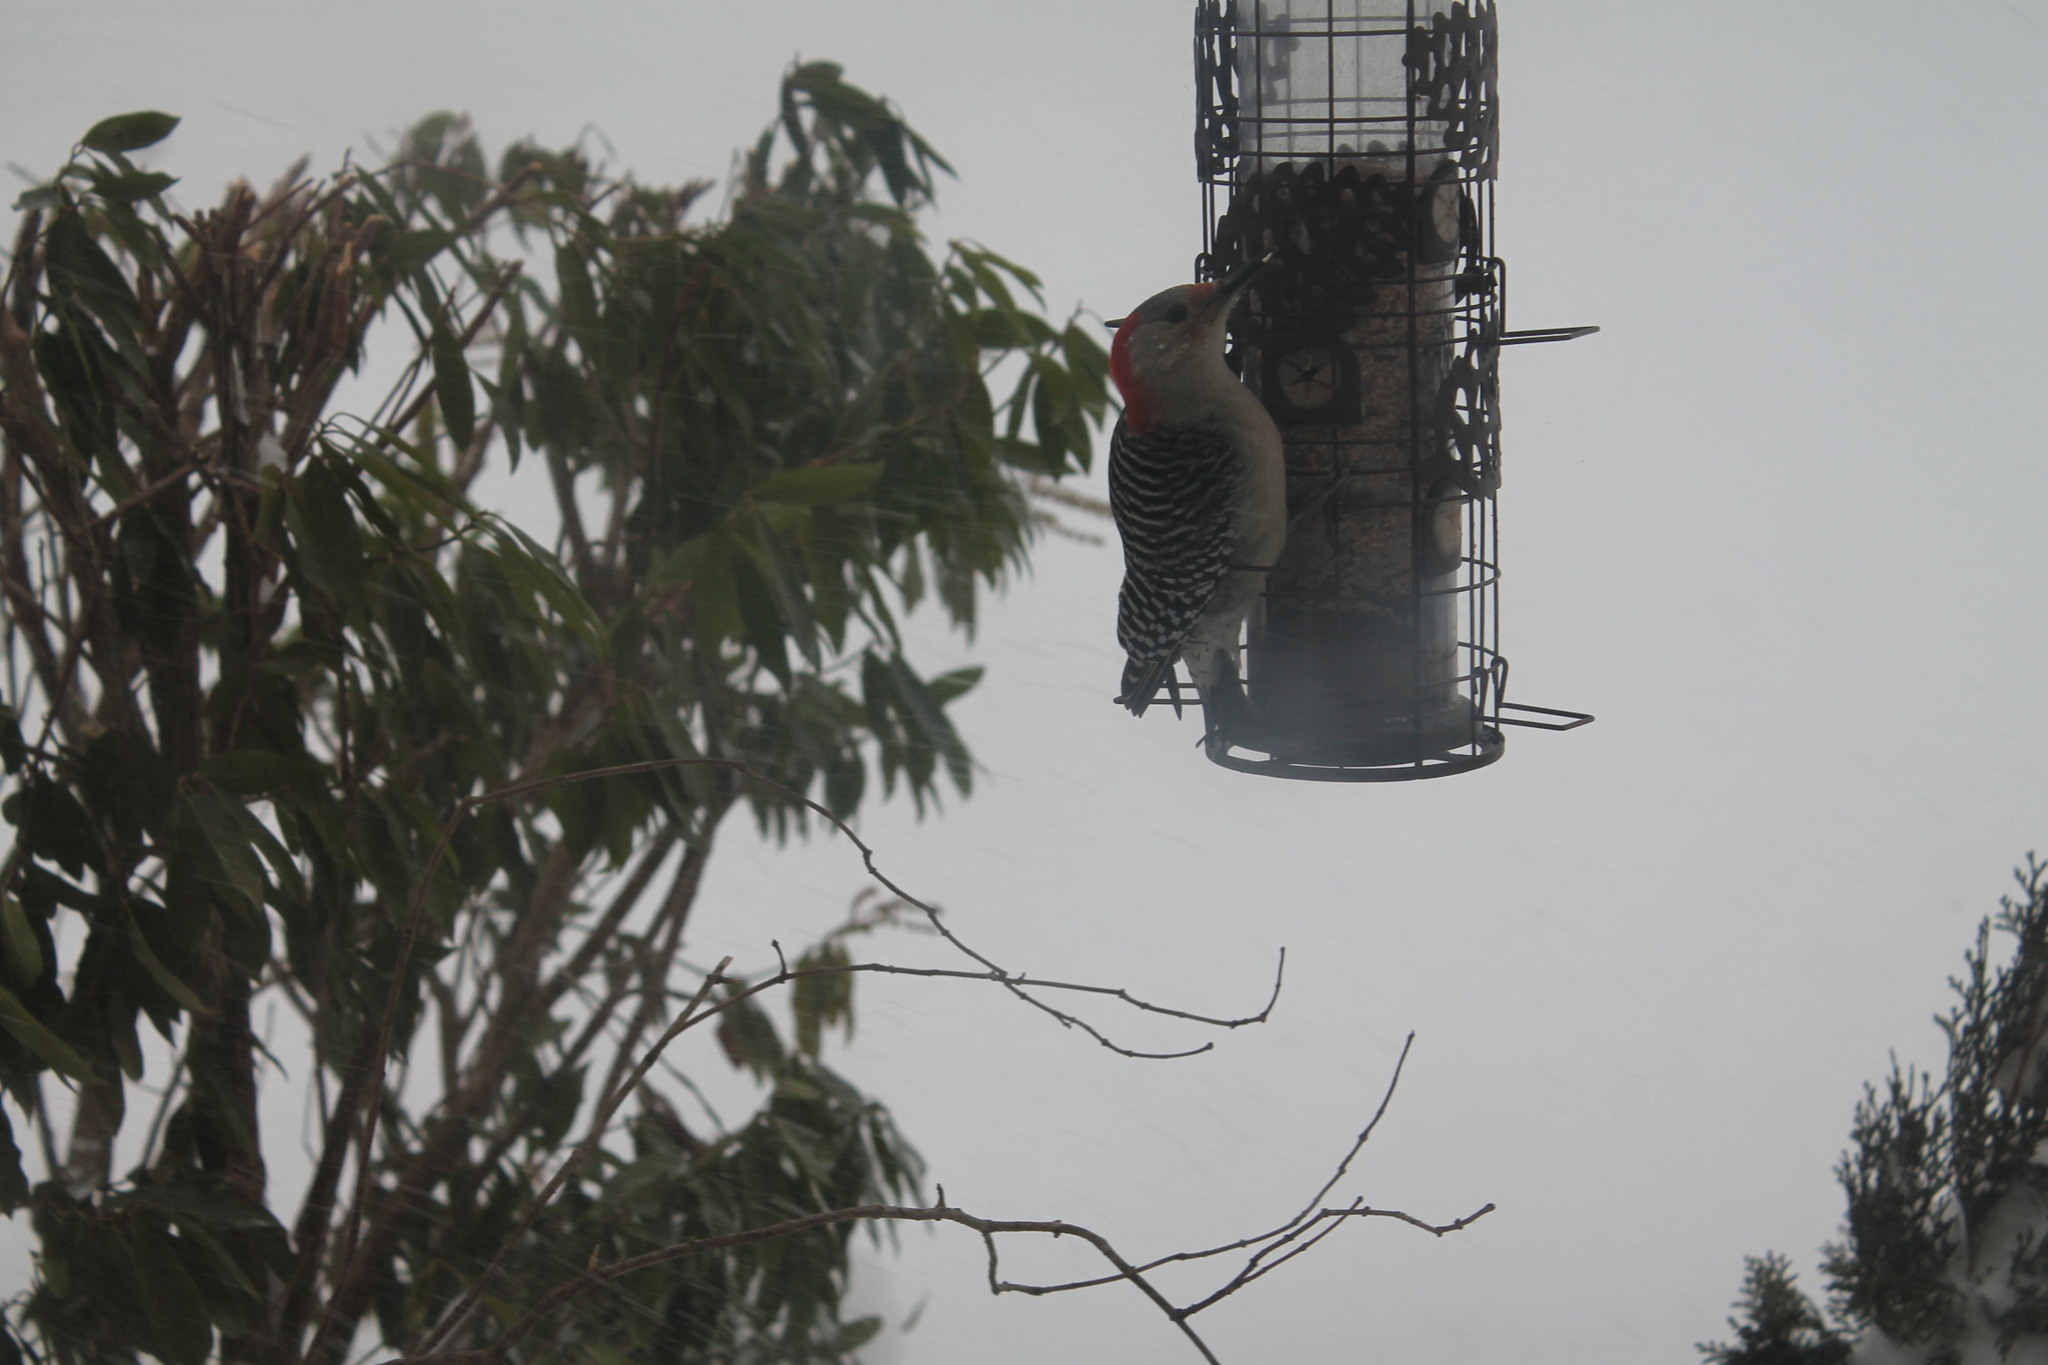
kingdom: Animalia
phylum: Chordata
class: Aves
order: Piciformes
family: Picidae
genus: Melanerpes
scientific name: Melanerpes carolinus
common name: Red-bellied woodpecker
